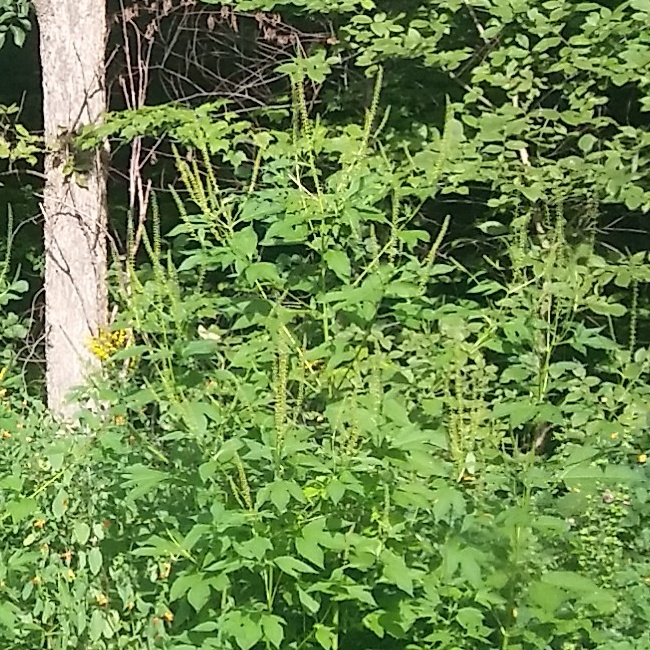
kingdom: Plantae
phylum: Tracheophyta
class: Magnoliopsida
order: Asterales
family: Asteraceae
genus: Ambrosia
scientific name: Ambrosia trifida
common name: Giant ragweed
